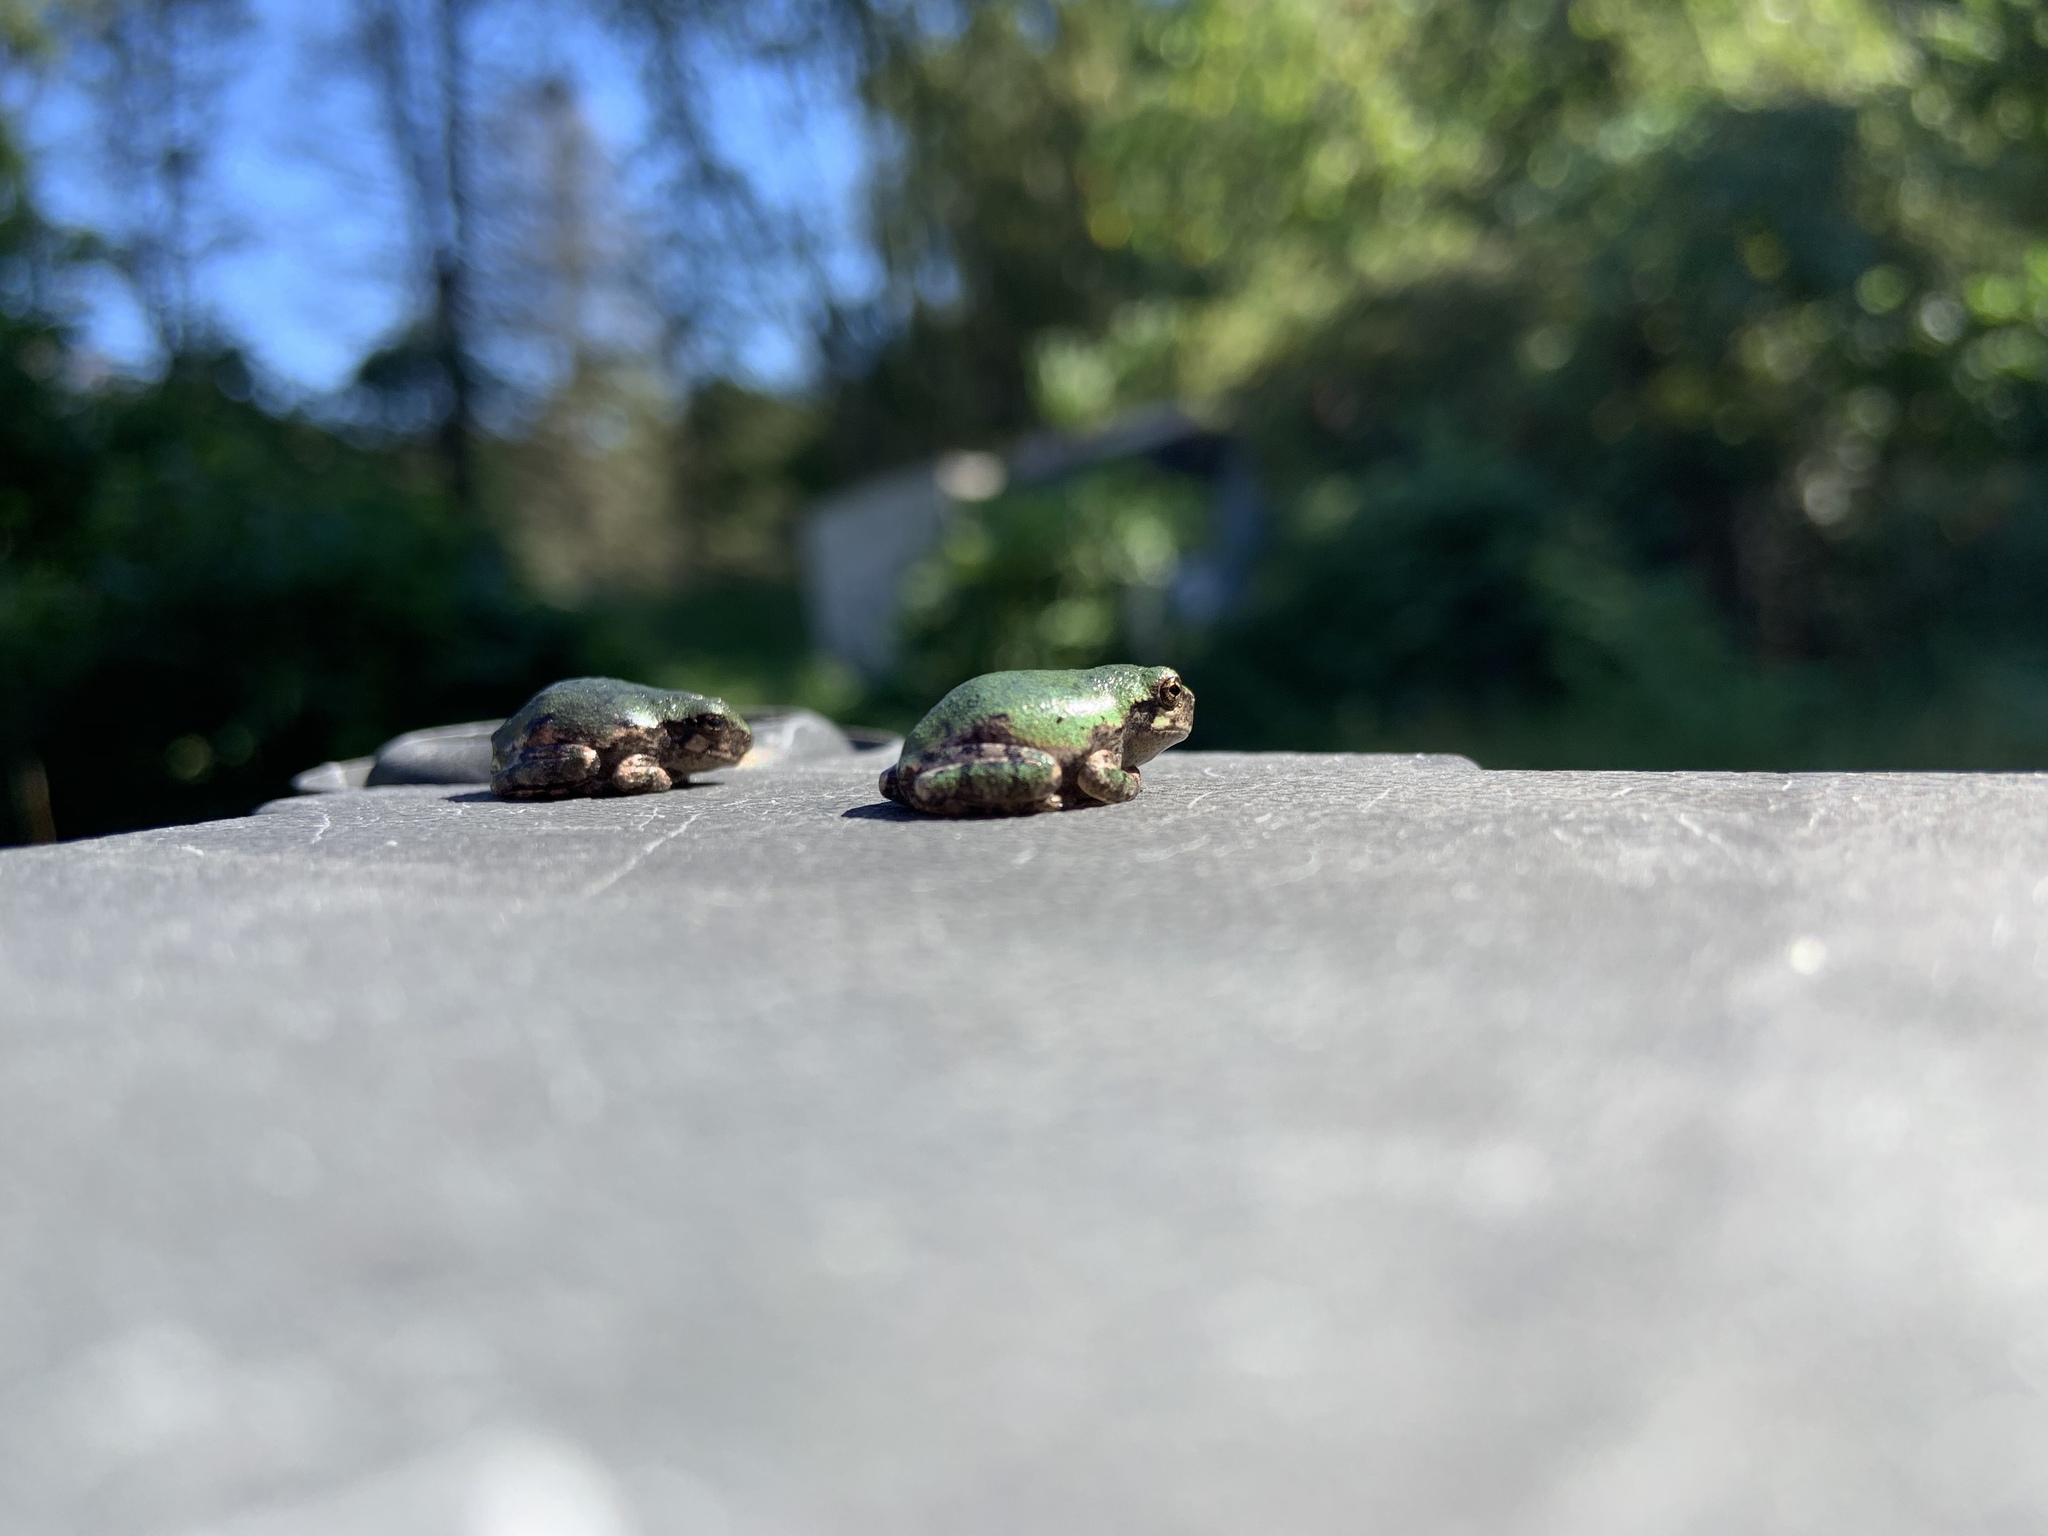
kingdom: Animalia
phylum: Chordata
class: Amphibia
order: Anura
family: Hylidae
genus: Dryophytes
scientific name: Dryophytes versicolor
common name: Gray treefrog
